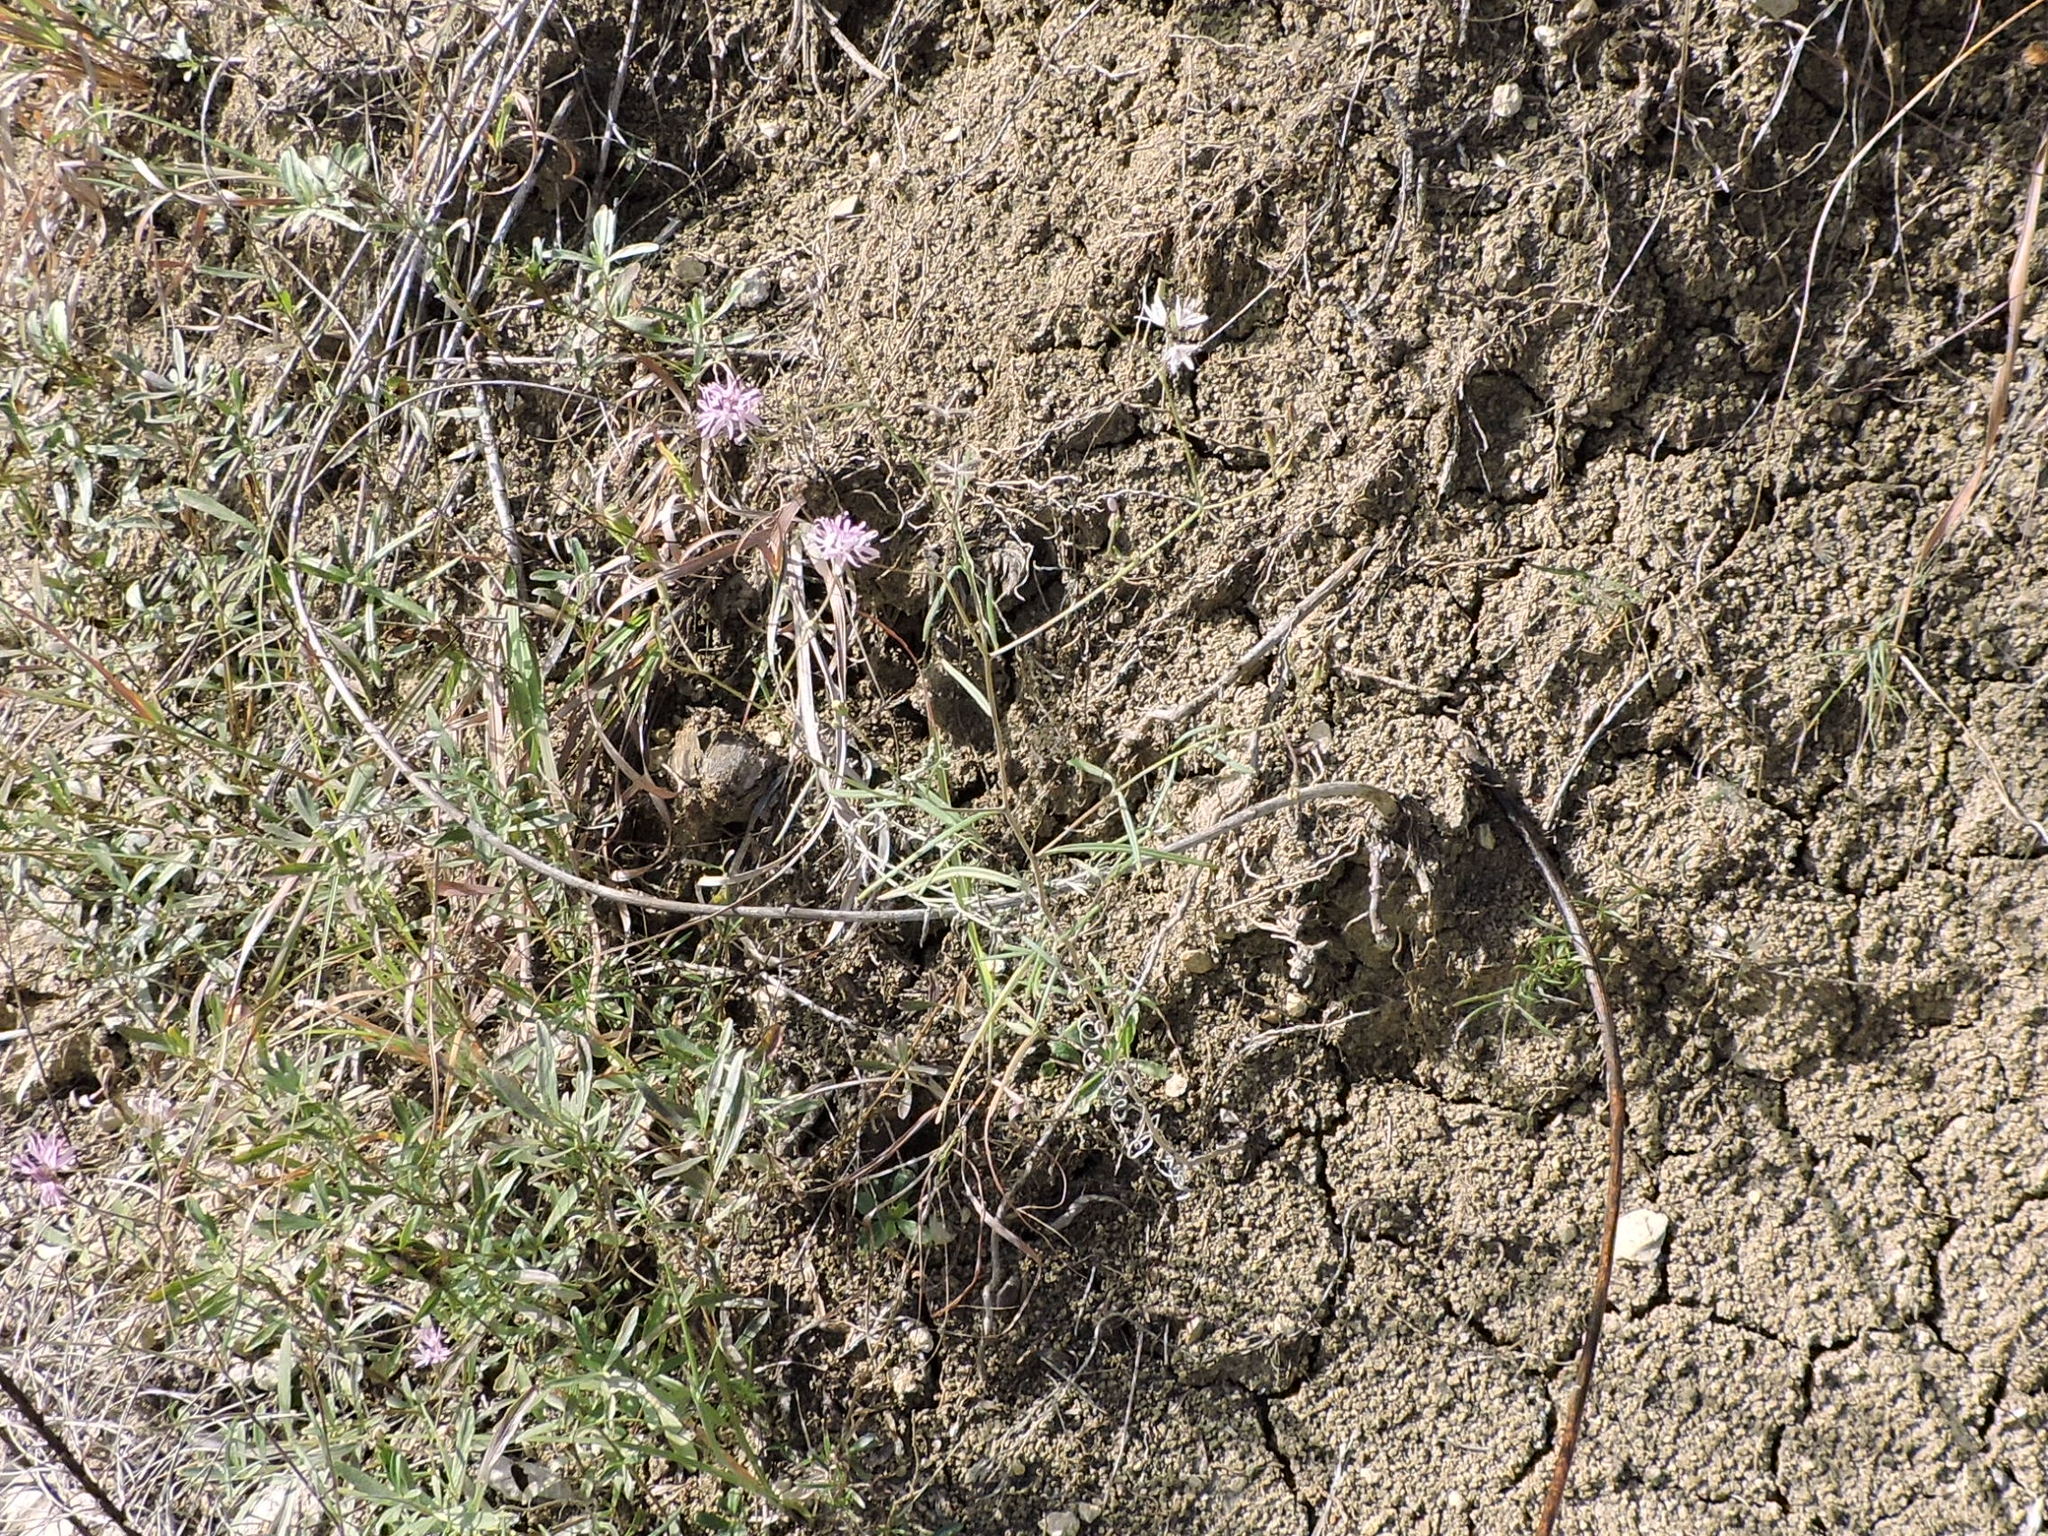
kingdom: Plantae
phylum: Tracheophyta
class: Magnoliopsida
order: Asterales
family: Asteraceae
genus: Palafoxia
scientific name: Palafoxia callosa
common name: Small palafox
